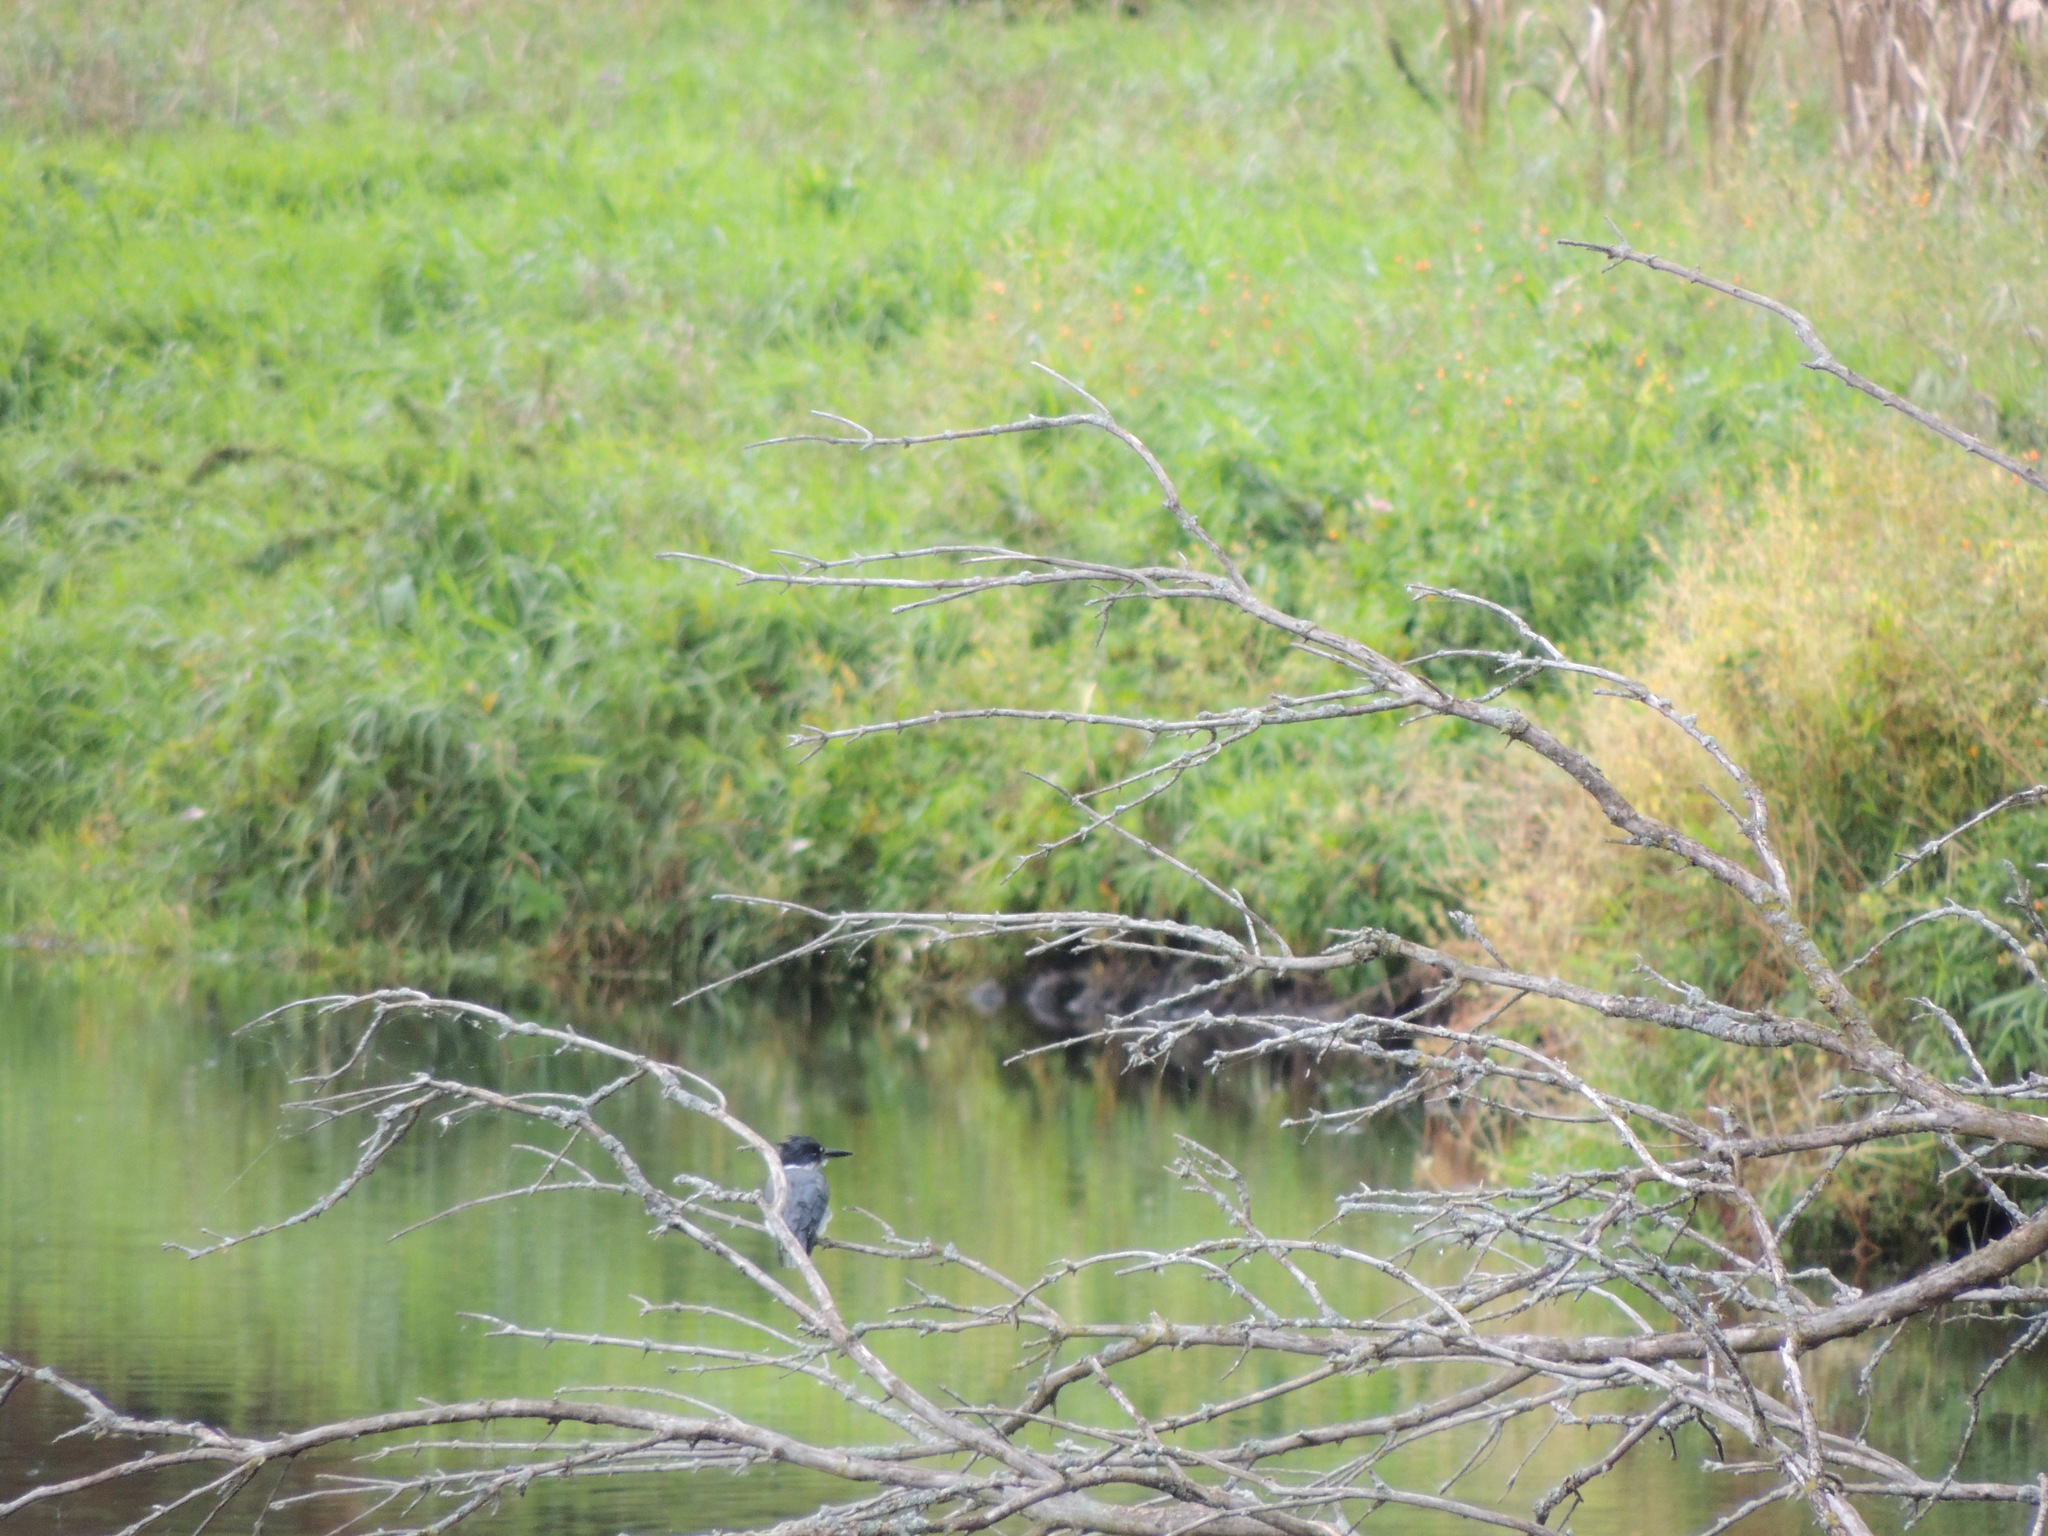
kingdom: Animalia
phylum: Chordata
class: Aves
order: Coraciiformes
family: Alcedinidae
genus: Megaceryle
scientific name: Megaceryle alcyon
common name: Belted kingfisher
